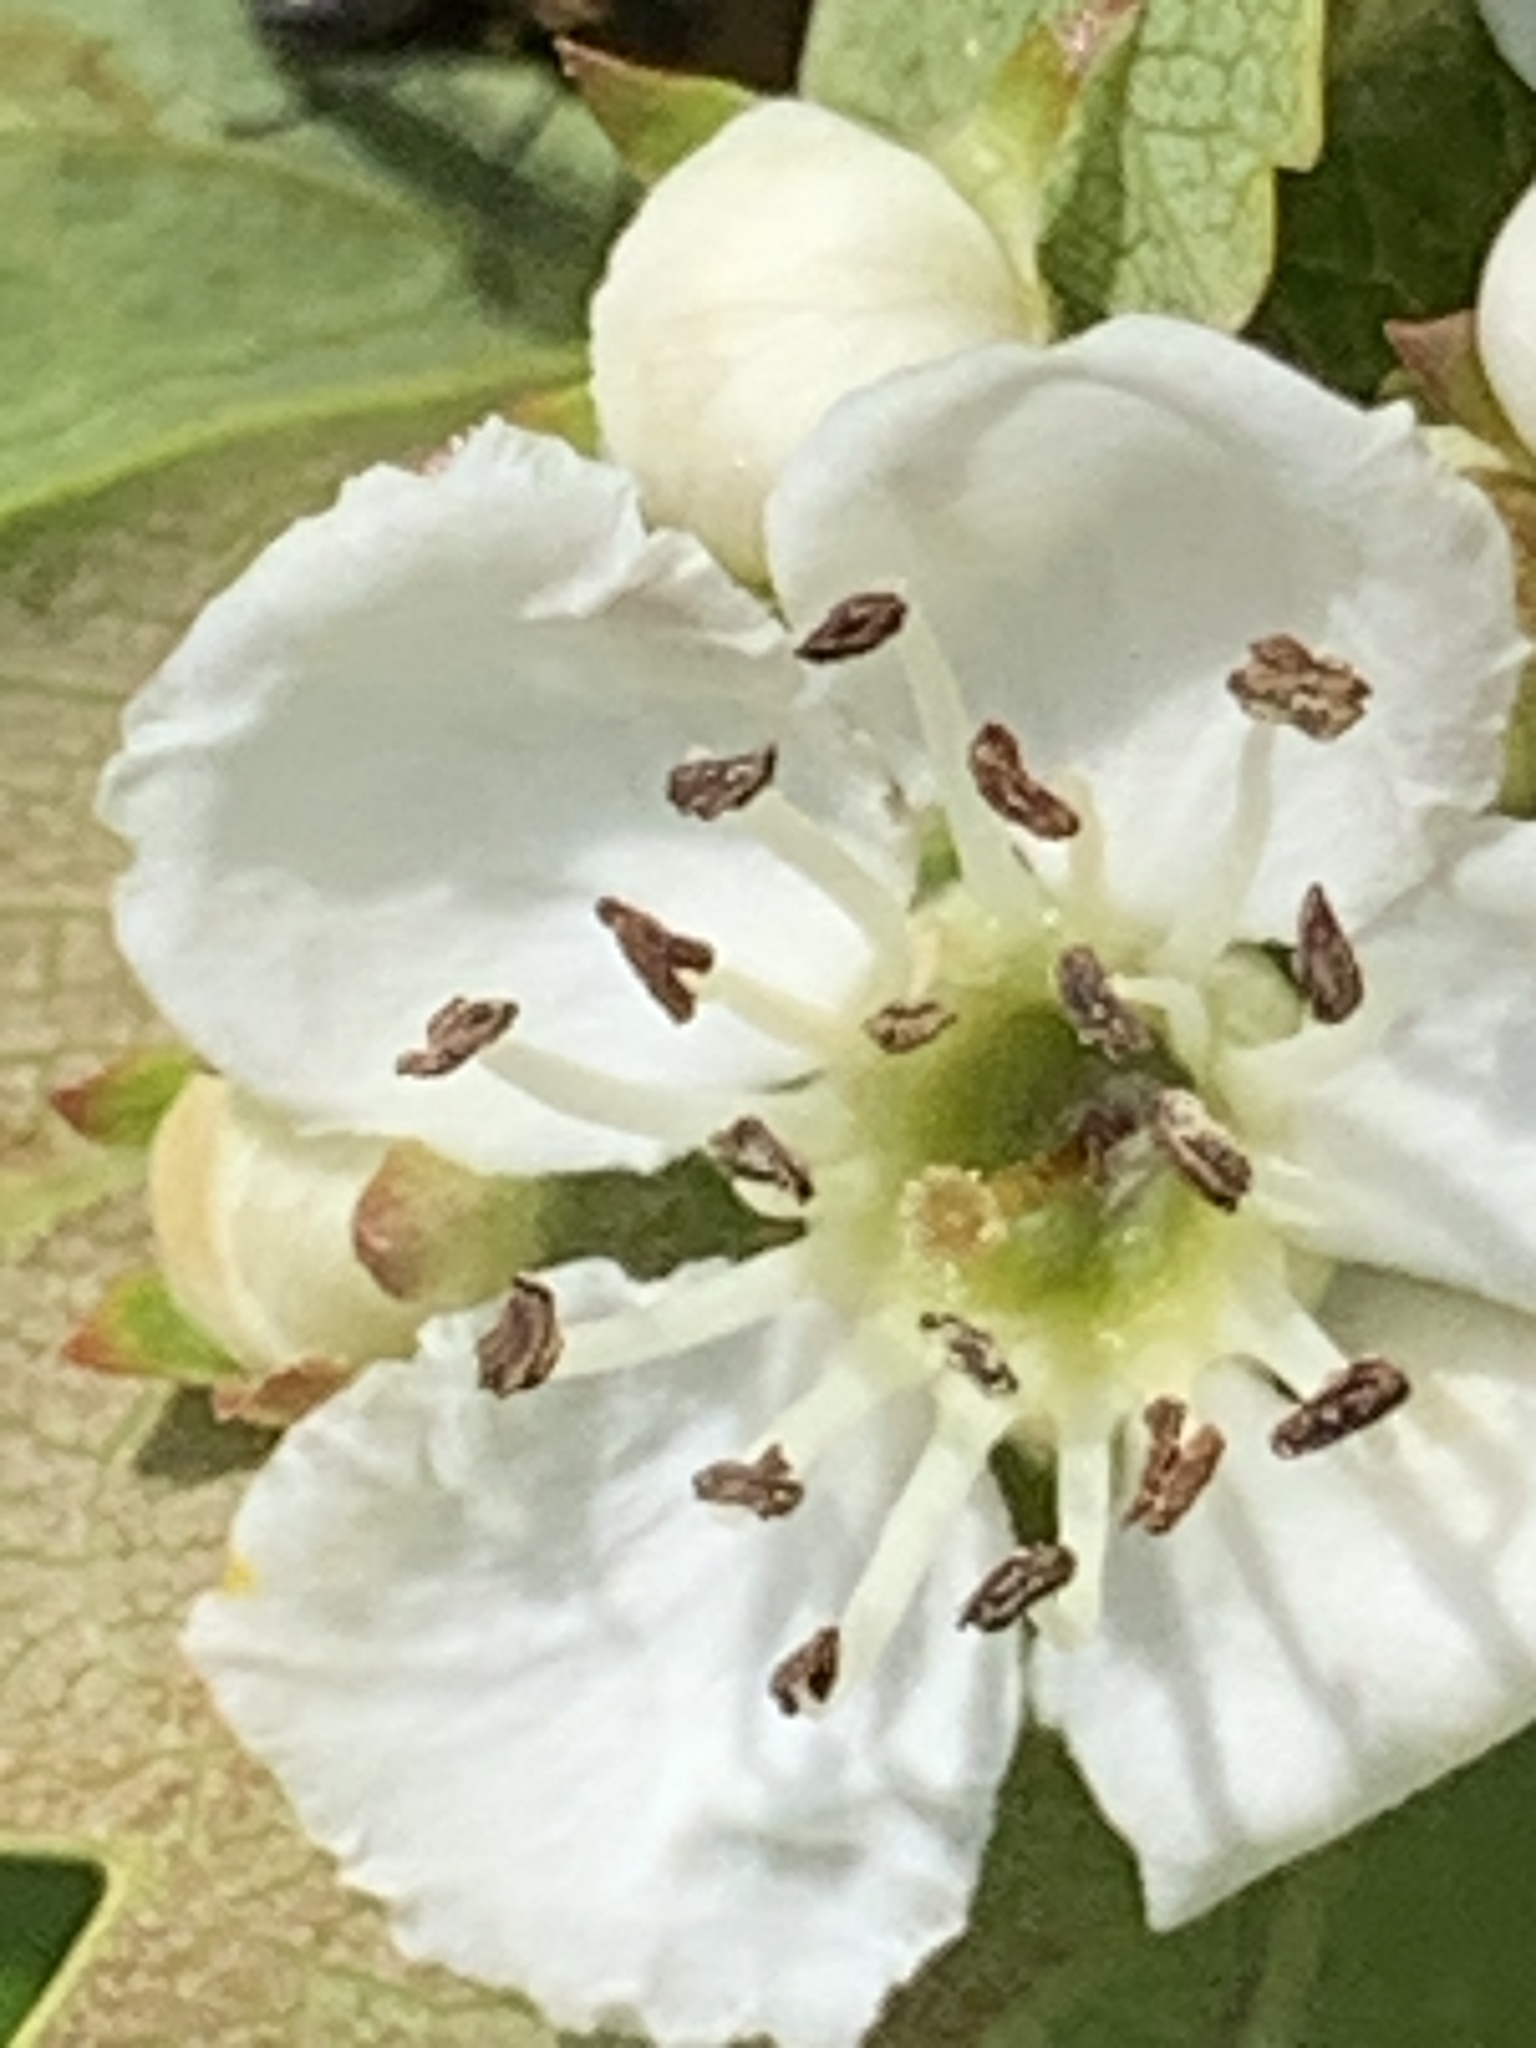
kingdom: Plantae
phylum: Tracheophyta
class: Magnoliopsida
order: Rosales
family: Rosaceae
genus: Crataegus
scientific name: Crataegus monogyna
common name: Hawthorn
